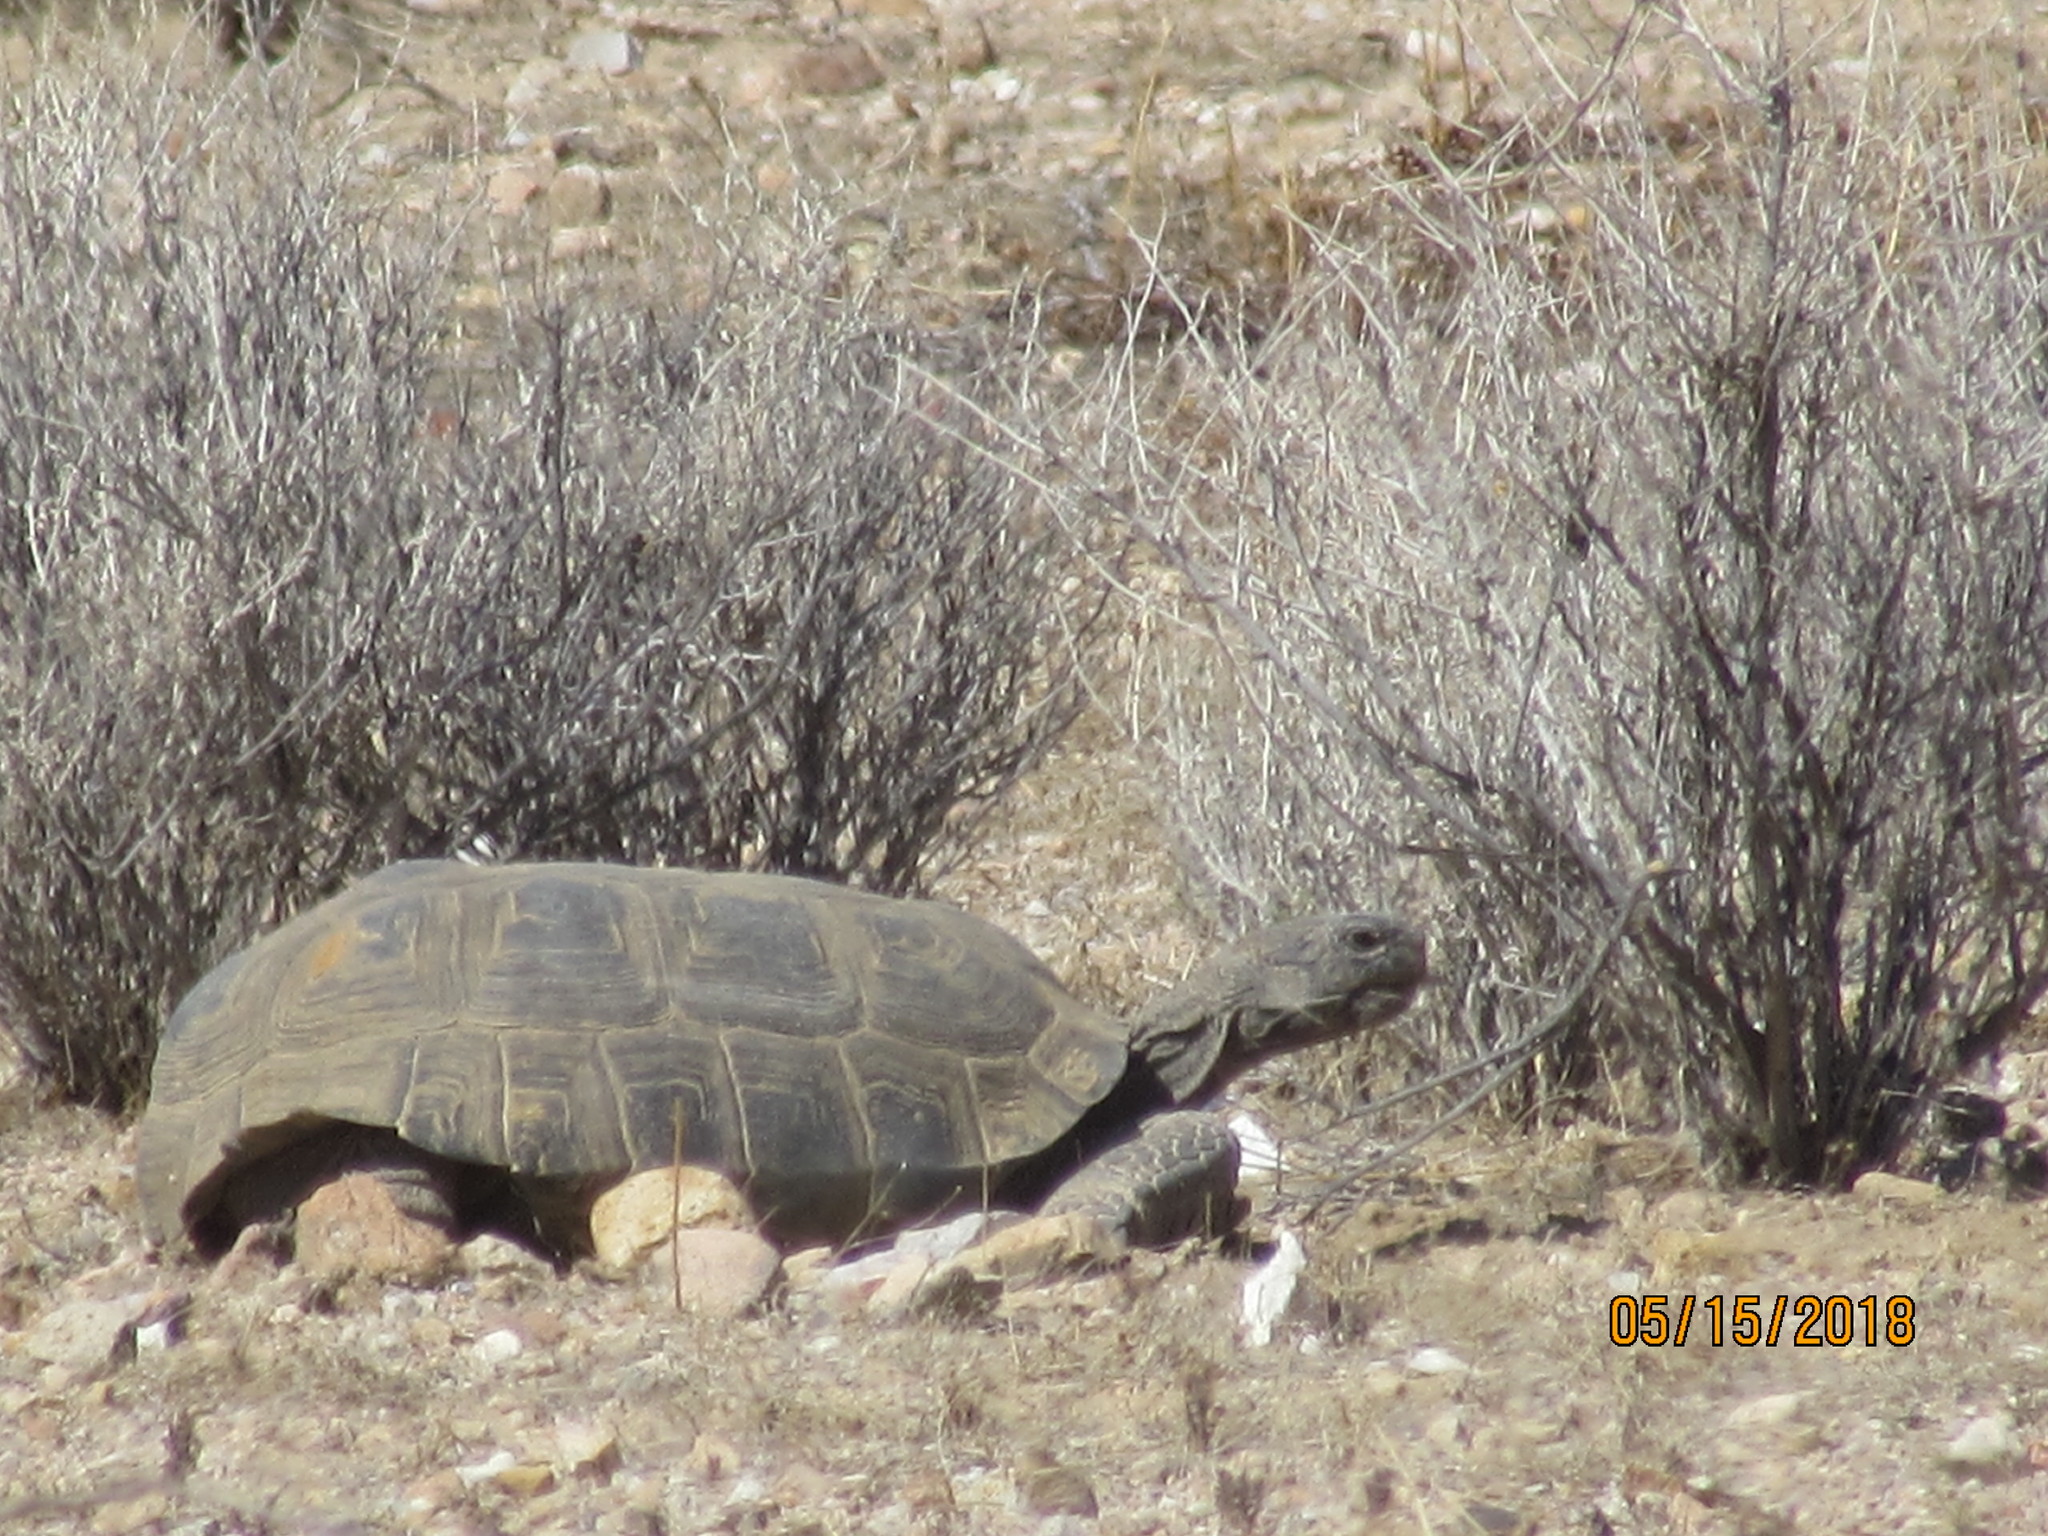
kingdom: Animalia
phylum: Chordata
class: Testudines
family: Testudinidae
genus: Gopherus
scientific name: Gopherus agassizii
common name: Mojave desert tortoise
